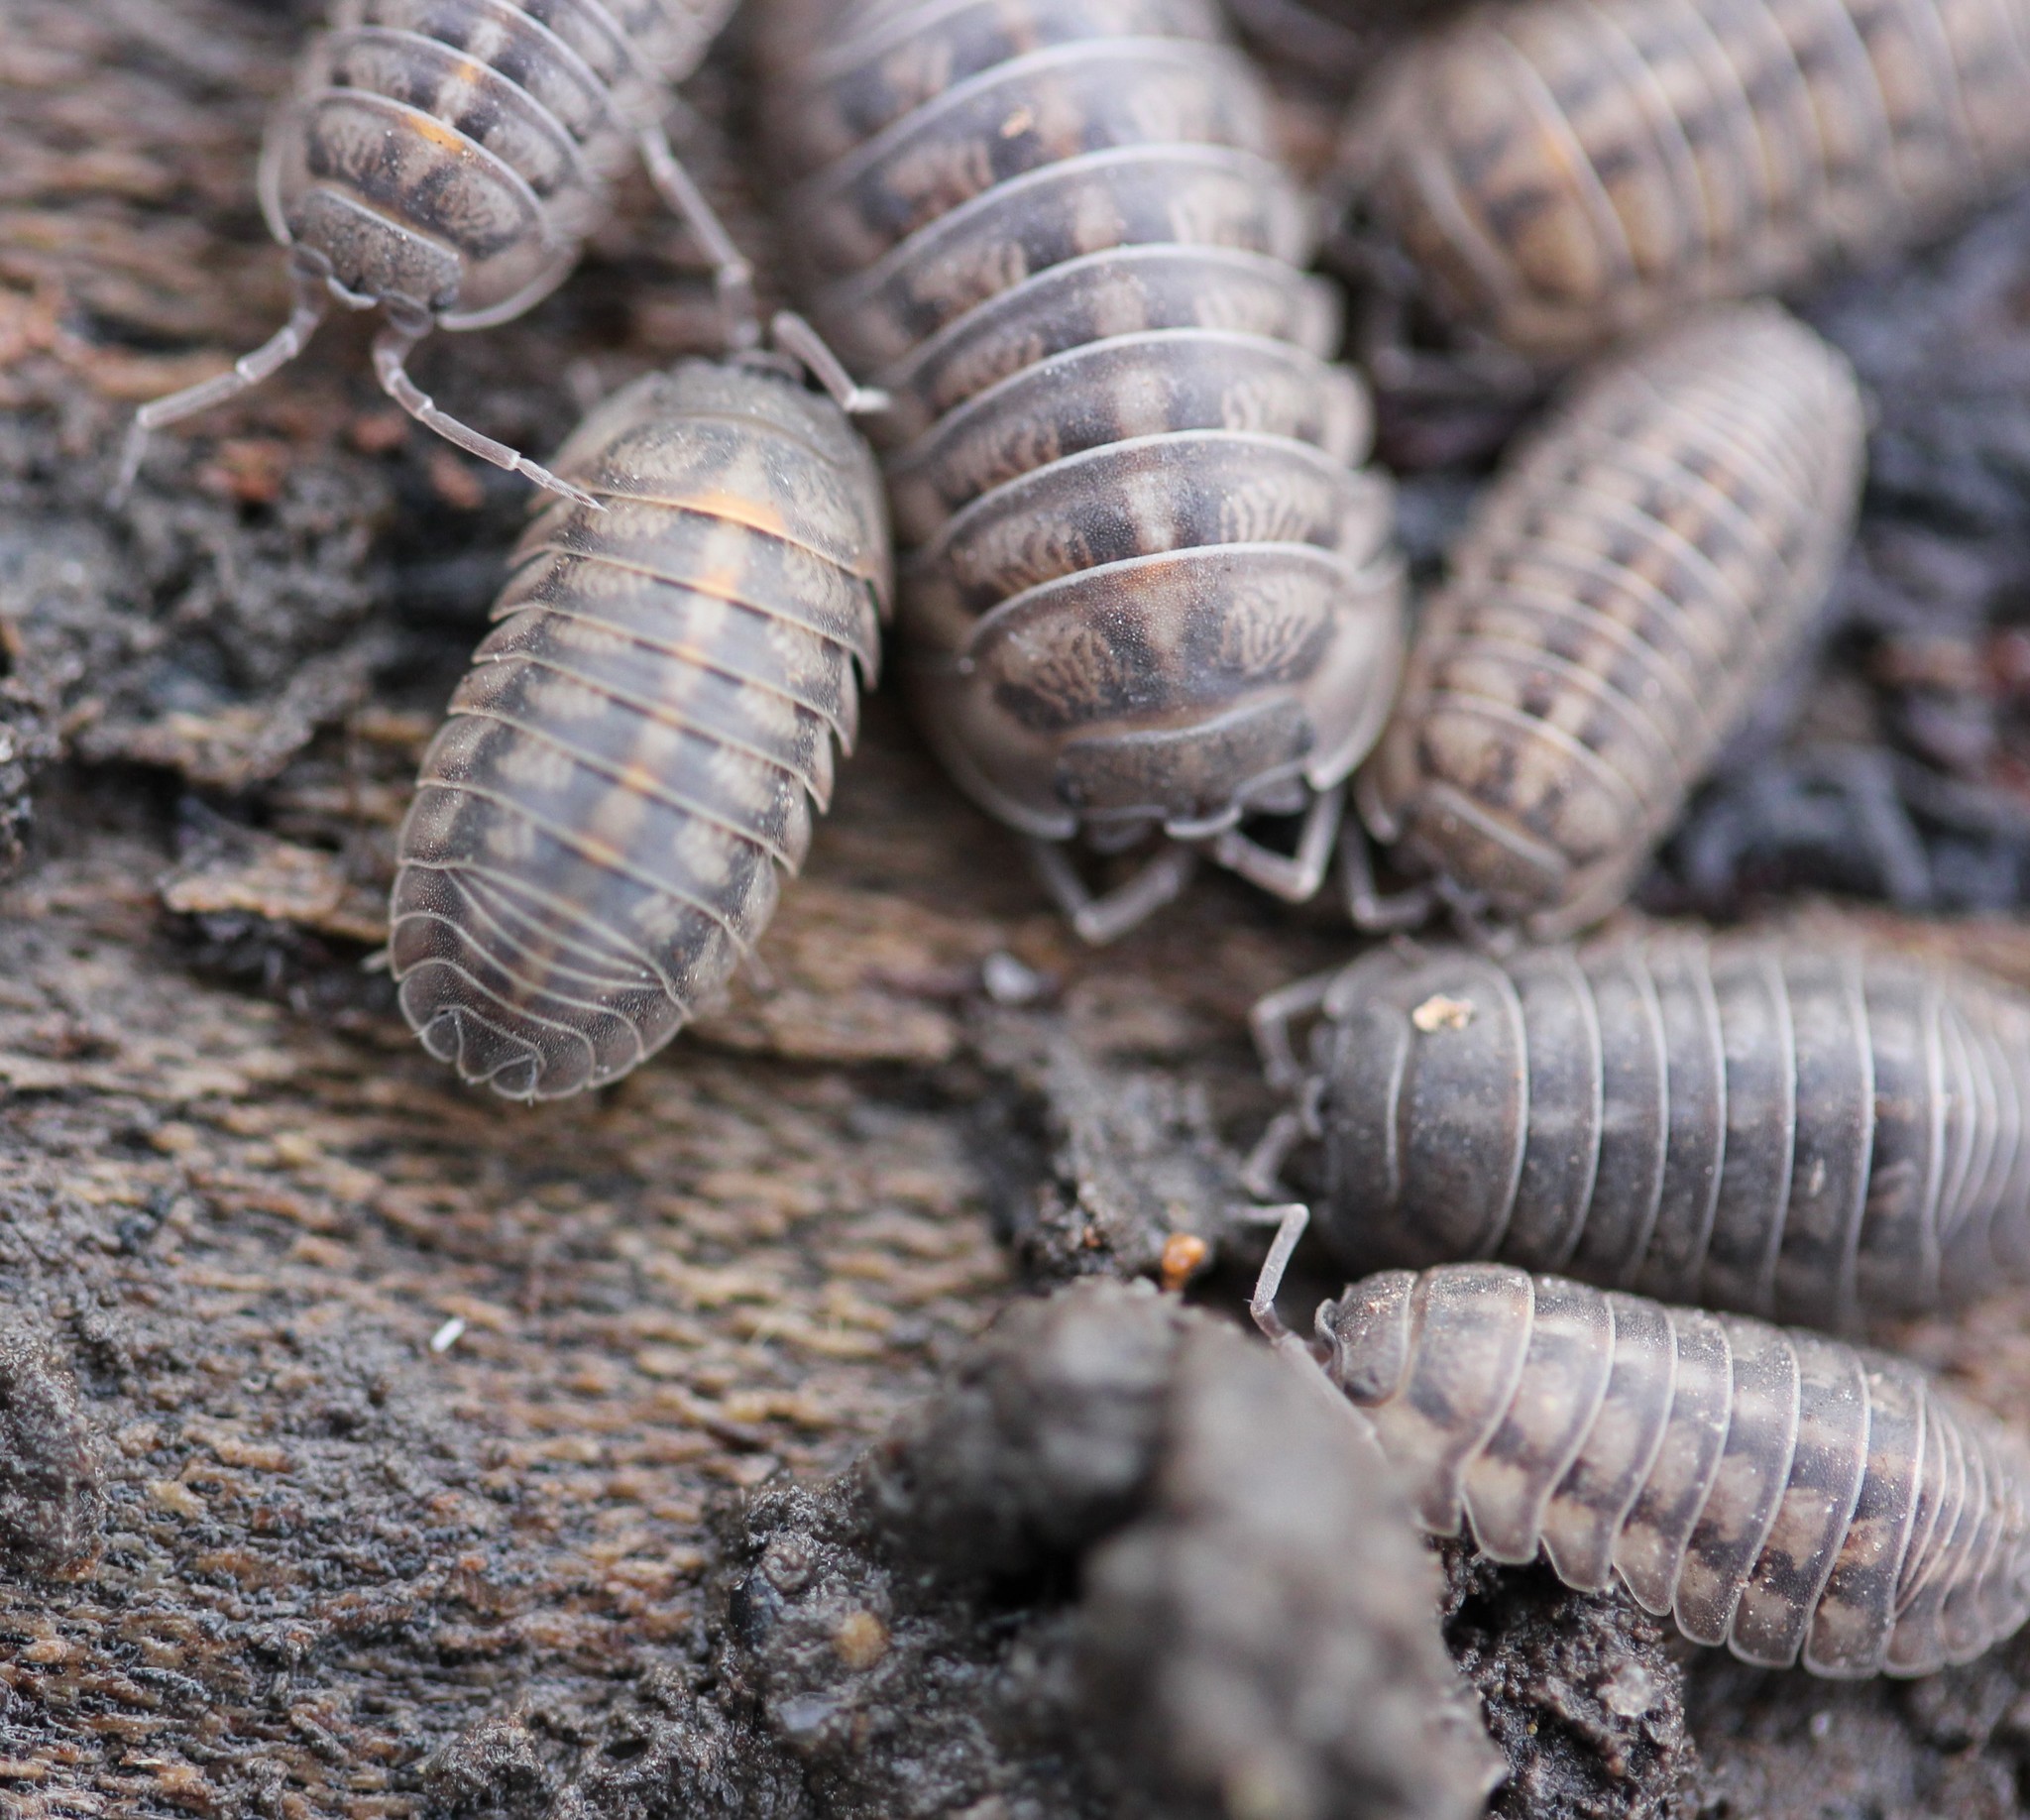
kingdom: Animalia
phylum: Arthropoda
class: Malacostraca
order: Isopoda
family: Armadillidiidae
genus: Armadillidium
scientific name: Armadillidium nasatum
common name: Isopod
